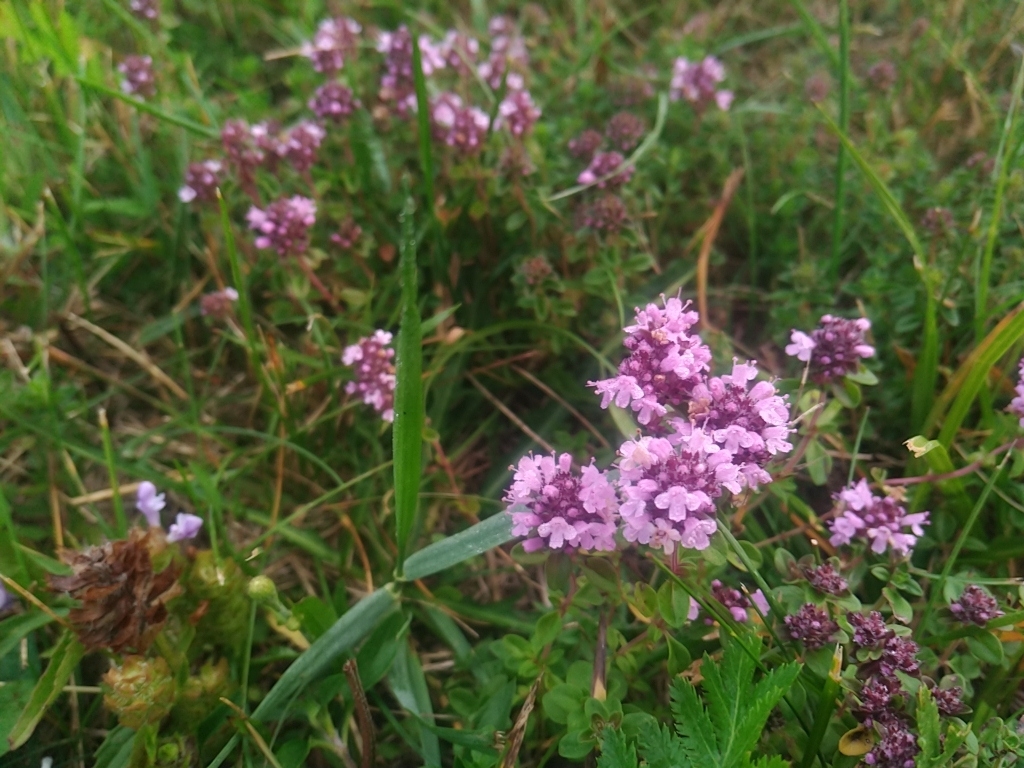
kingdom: Plantae
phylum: Tracheophyta
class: Magnoliopsida
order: Lamiales
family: Lamiaceae
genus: Thymus
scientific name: Thymus pulegioides
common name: Large thyme
